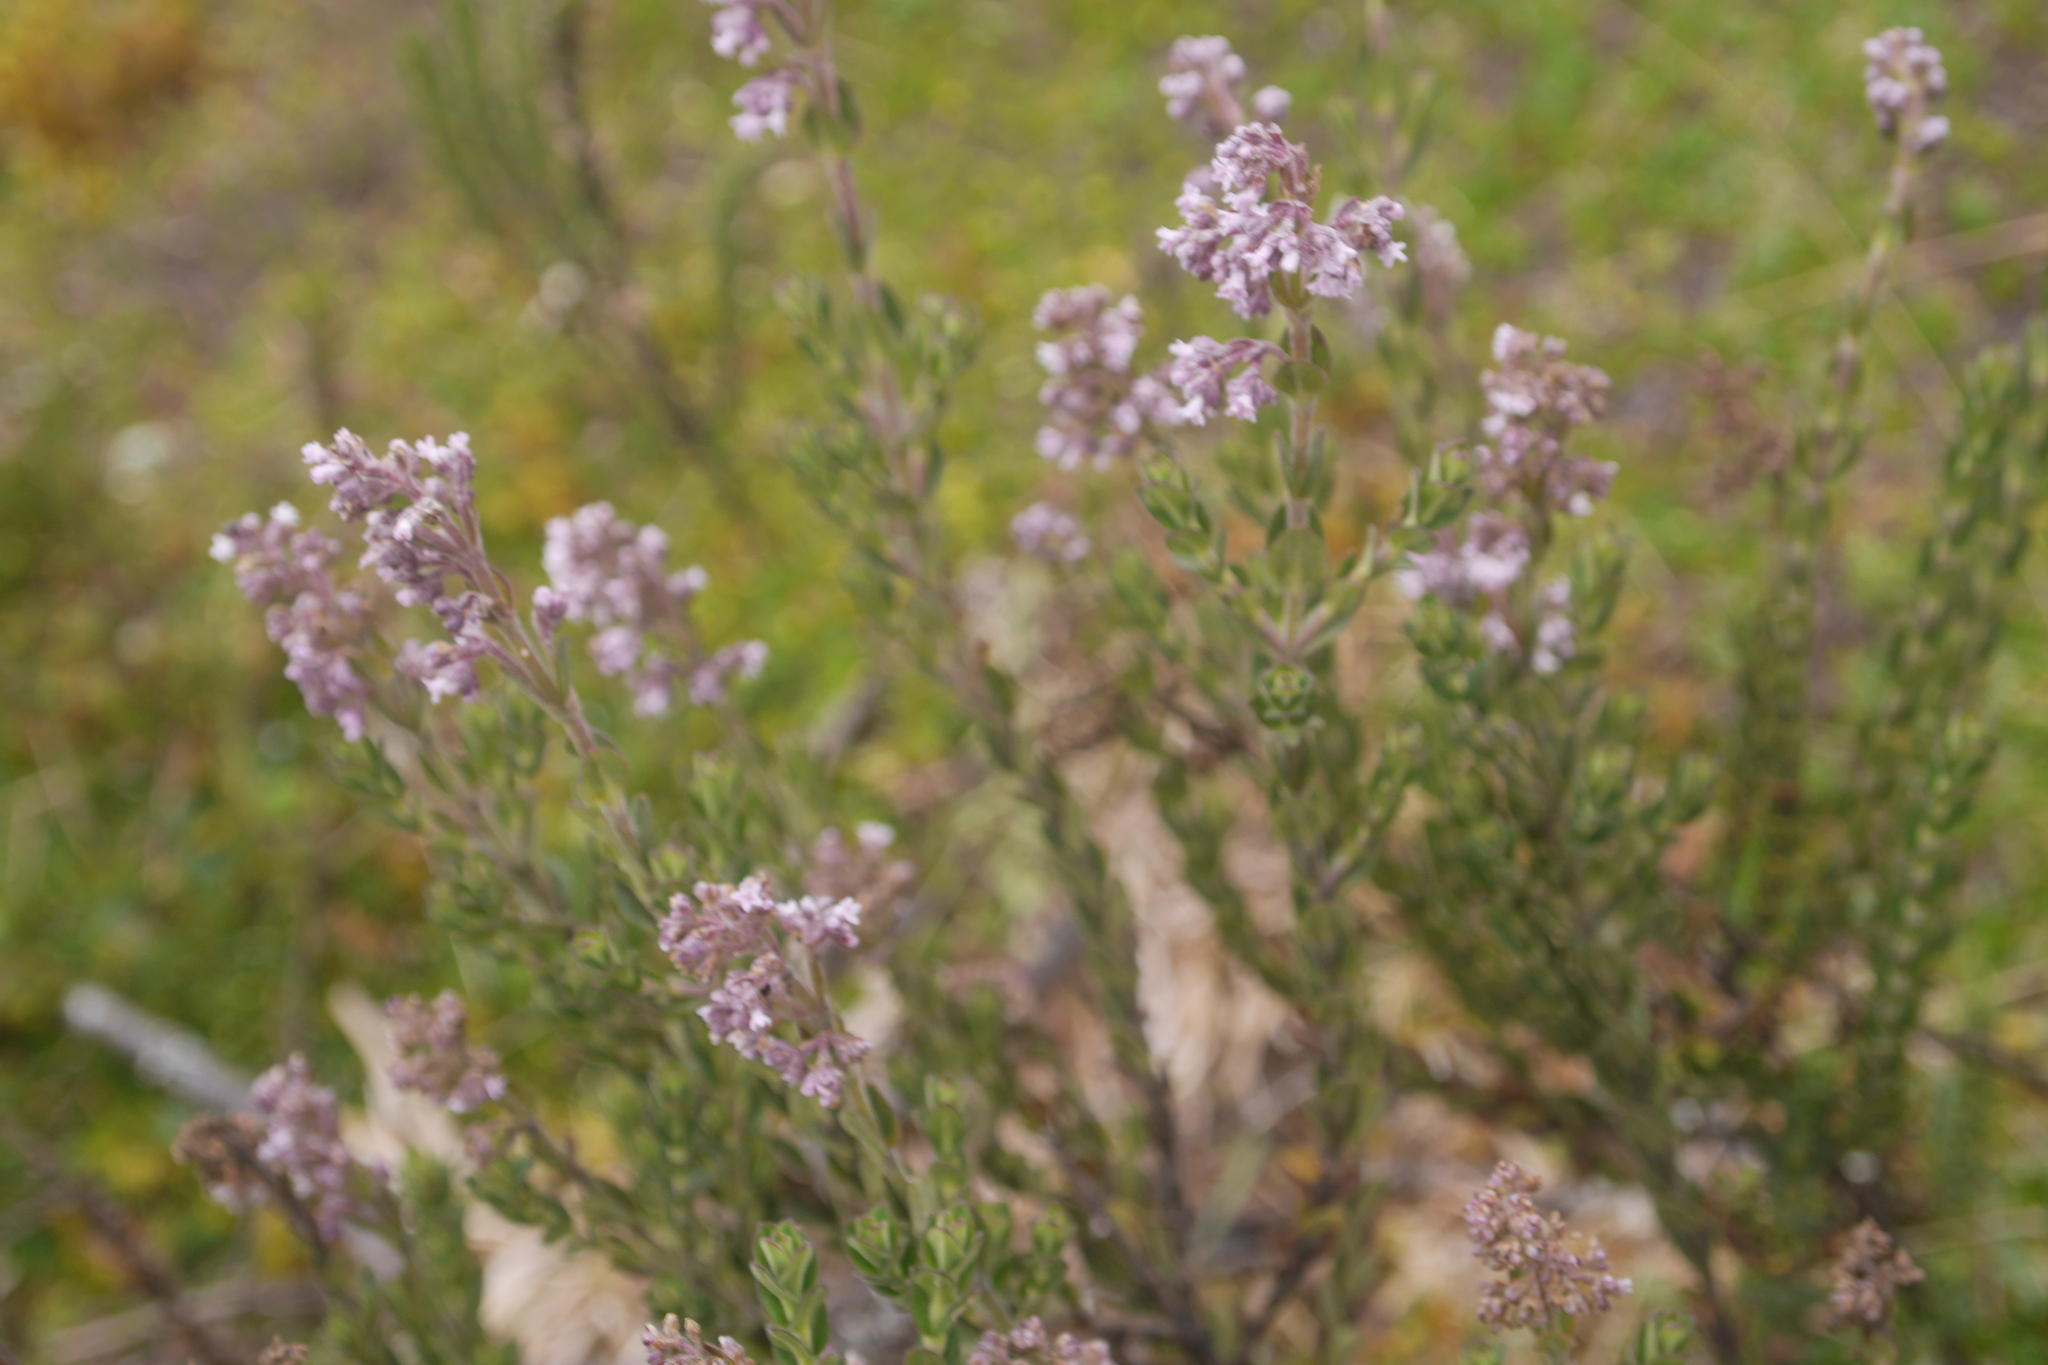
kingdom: Plantae
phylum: Tracheophyta
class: Magnoliopsida
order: Dipsacales
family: Caprifoliaceae
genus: Valeriana
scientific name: Valeriana microphylla
